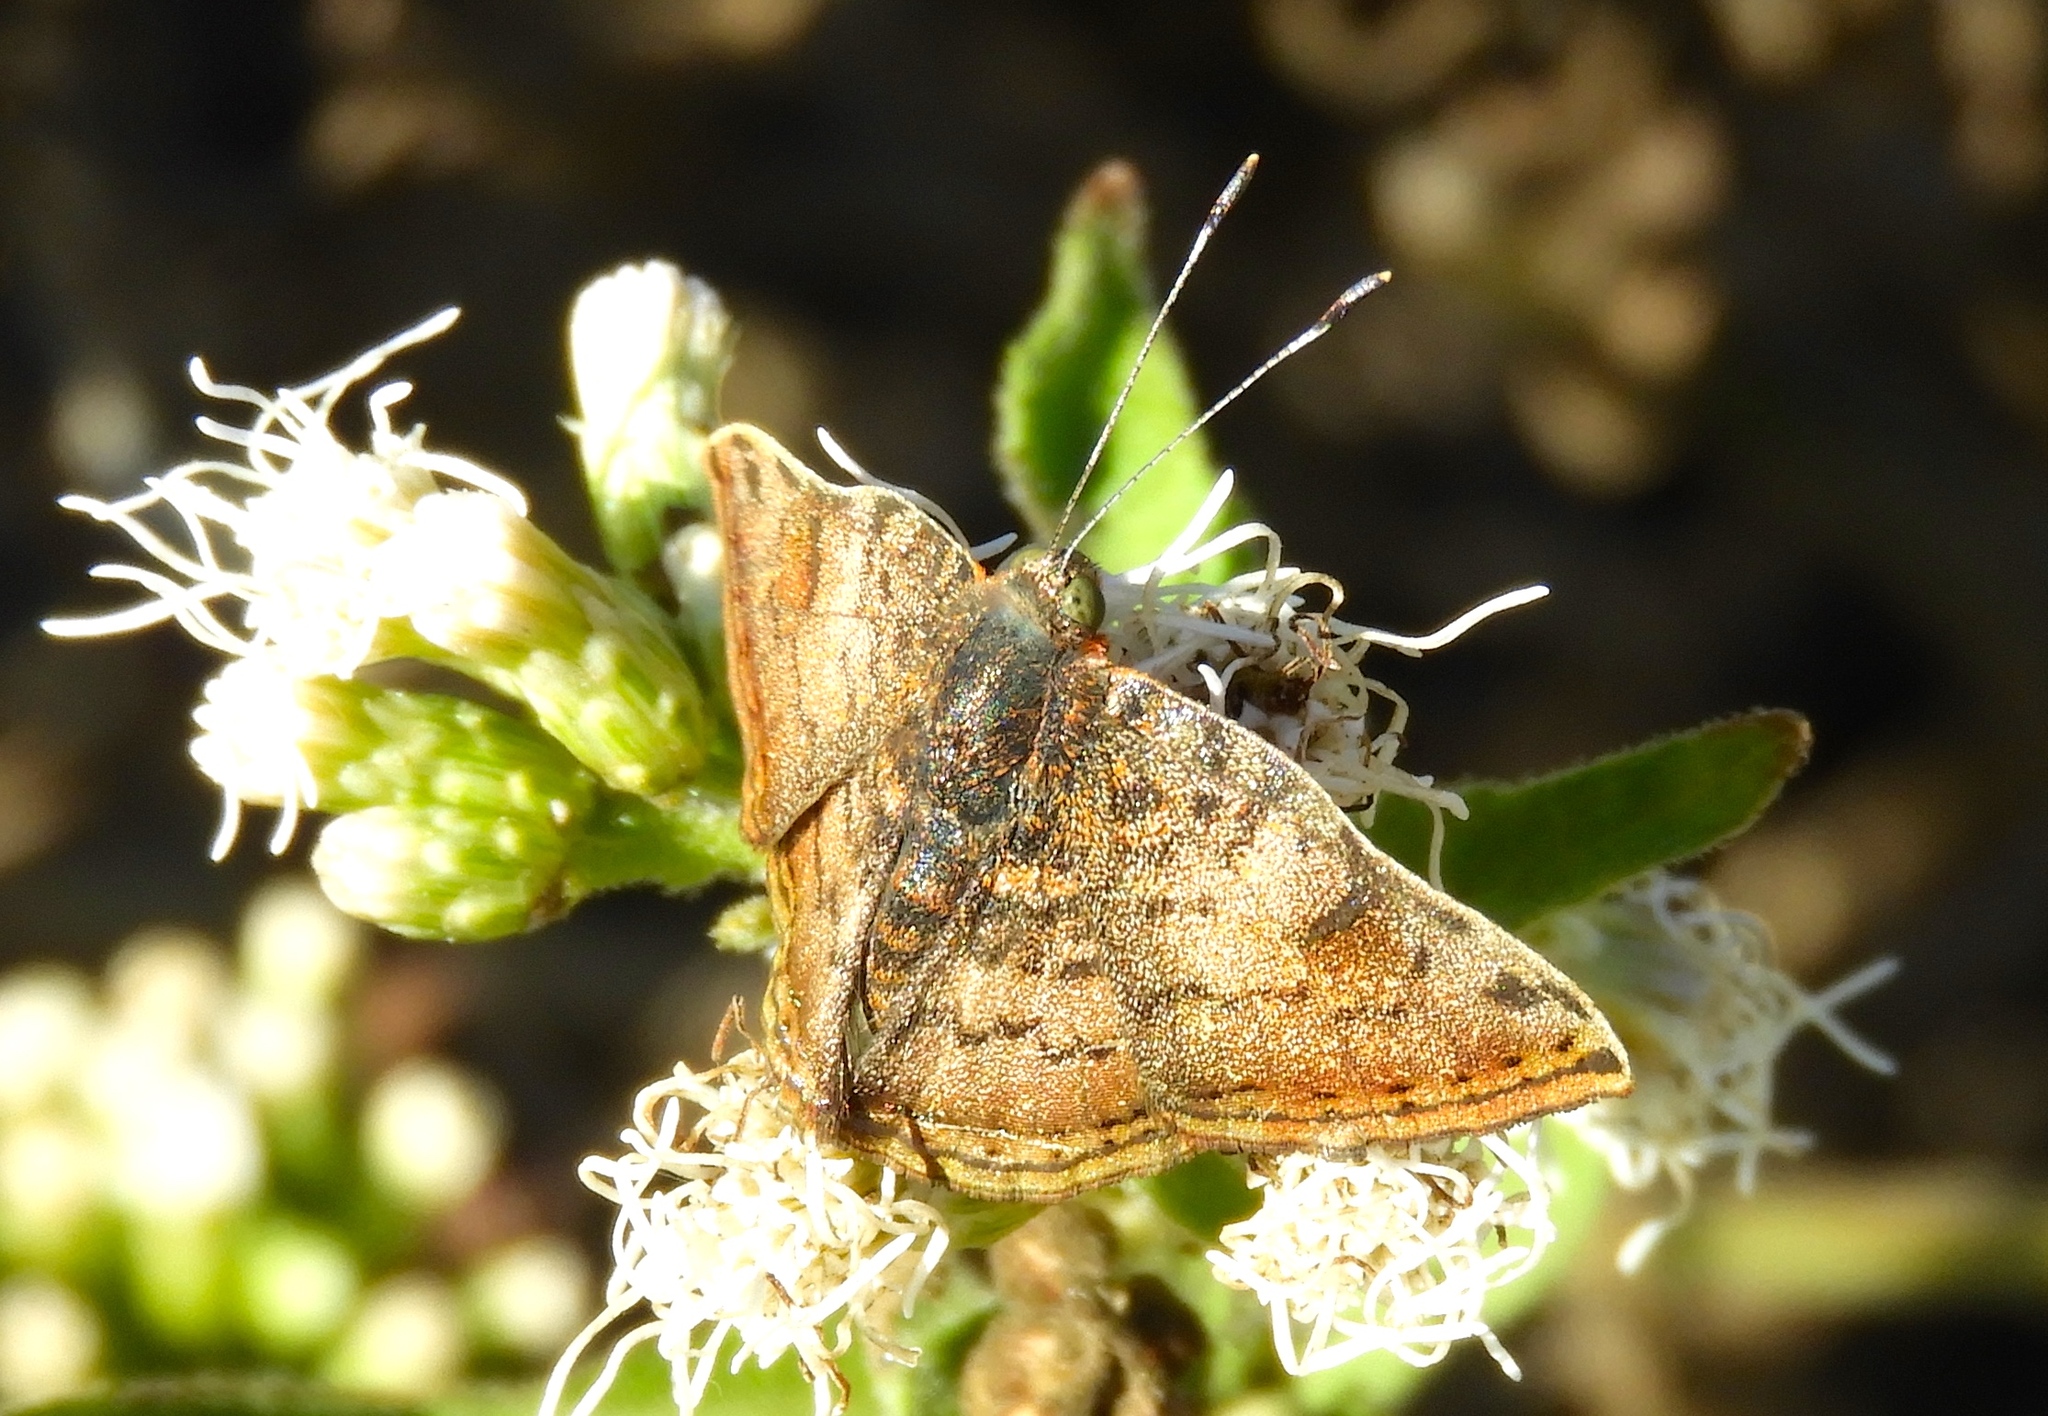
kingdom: Animalia
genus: Caria
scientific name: Caria ino
